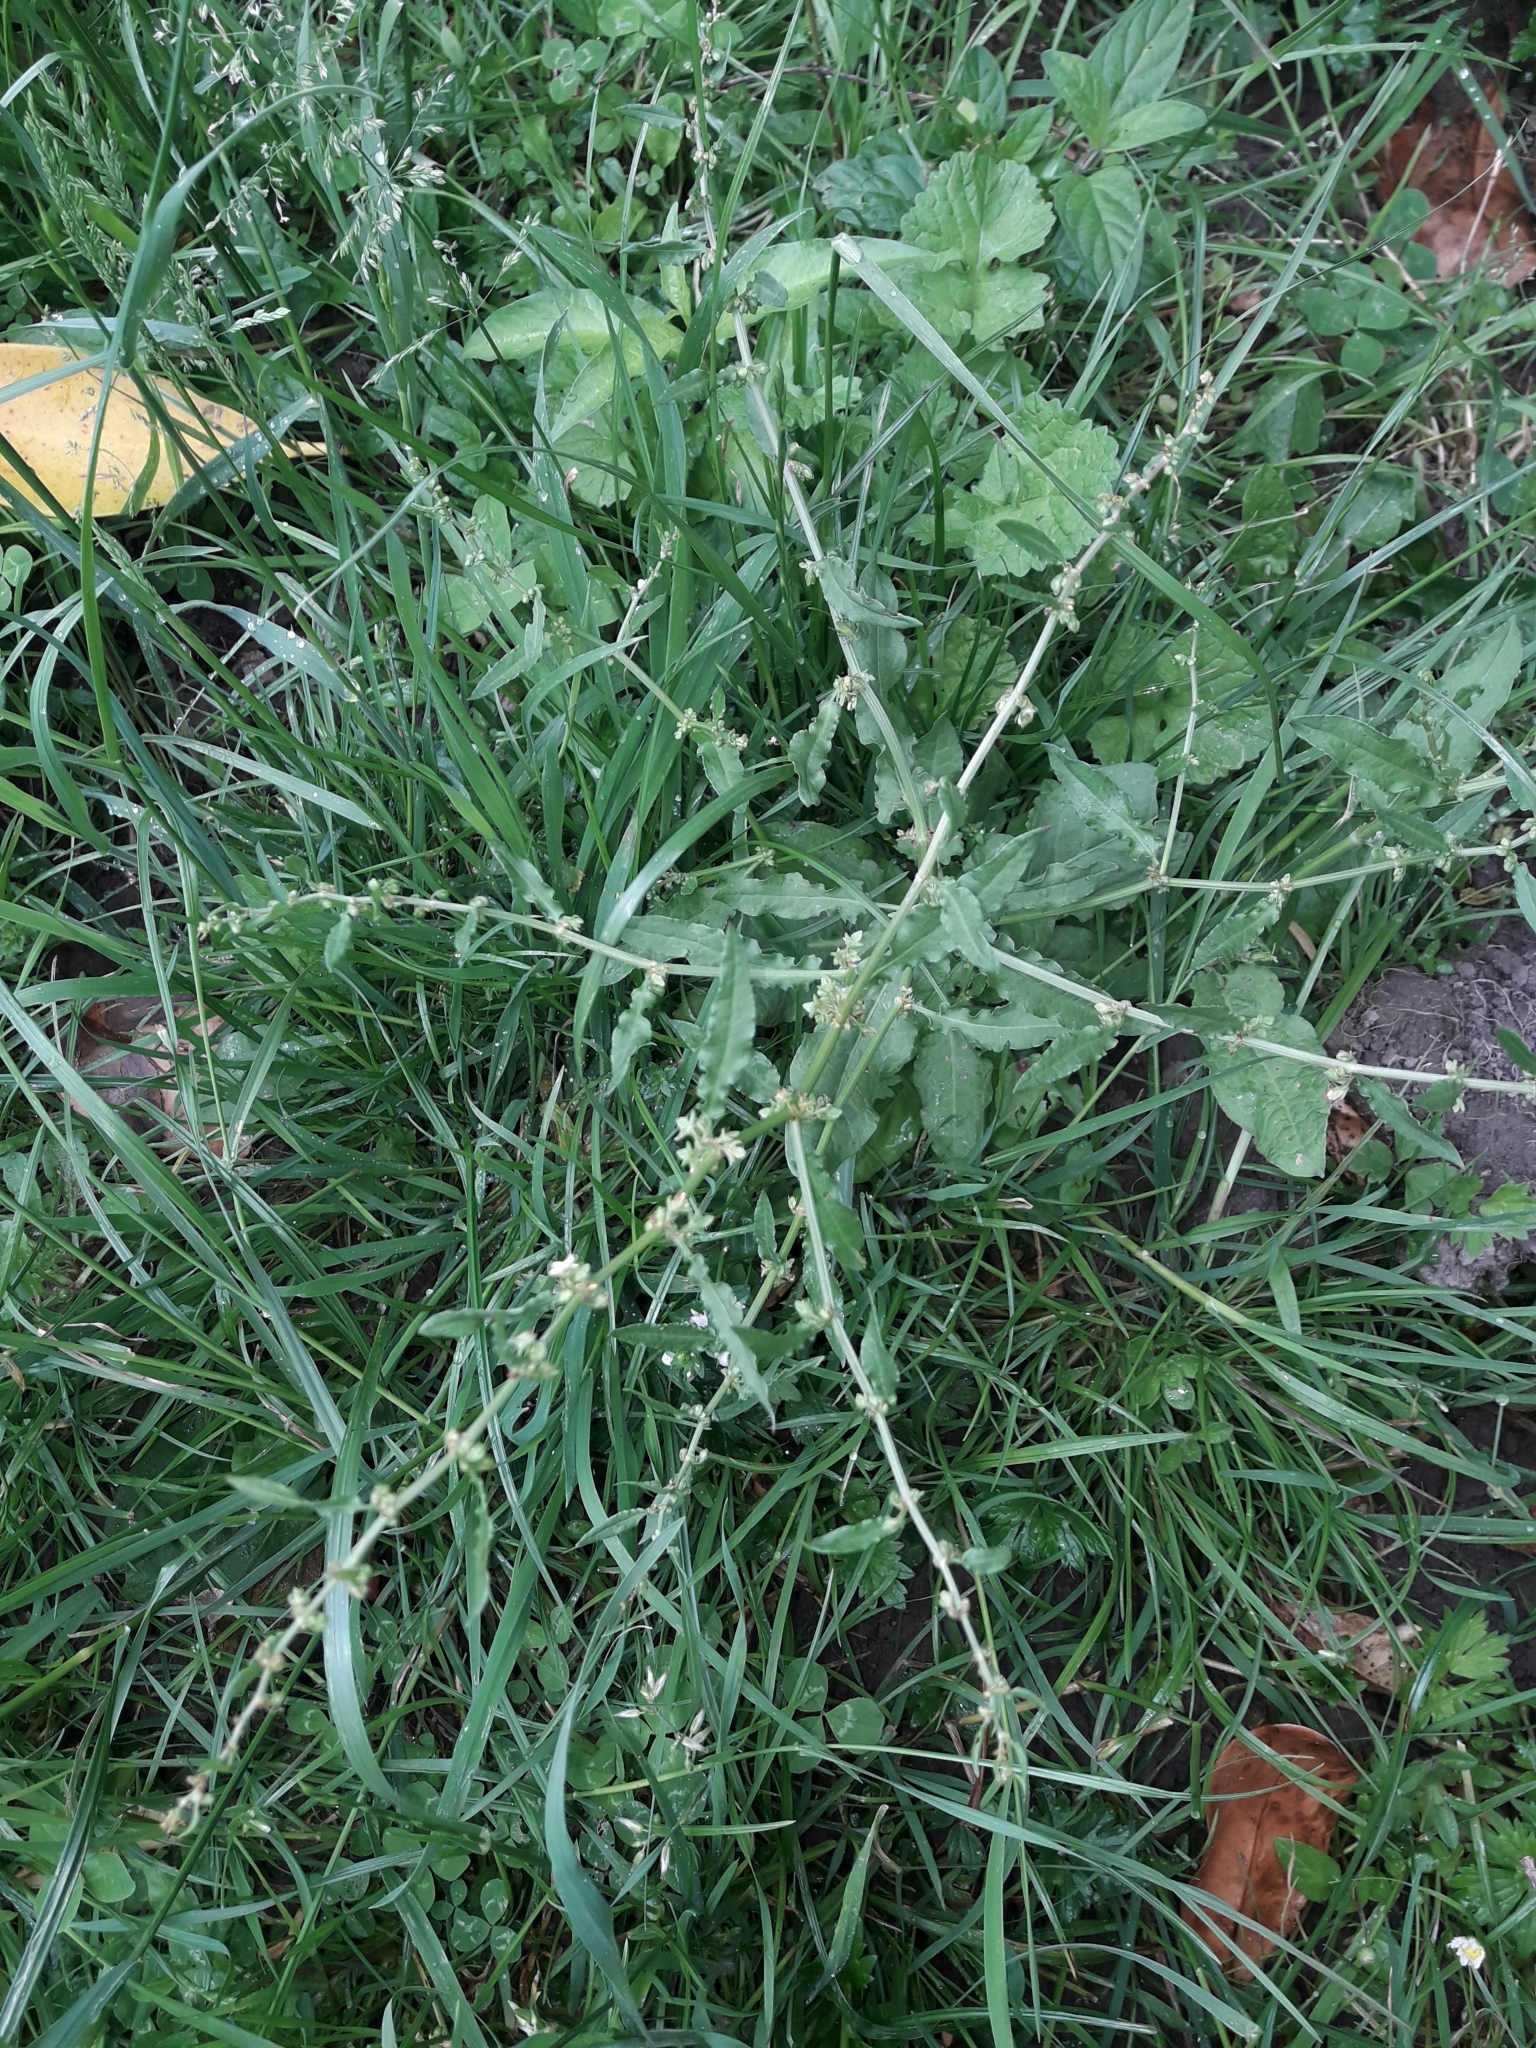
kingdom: Plantae
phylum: Tracheophyta
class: Magnoliopsida
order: Caryophyllales
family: Polygonaceae
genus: Rumex
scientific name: Rumex pulcher
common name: Fiddle dock
